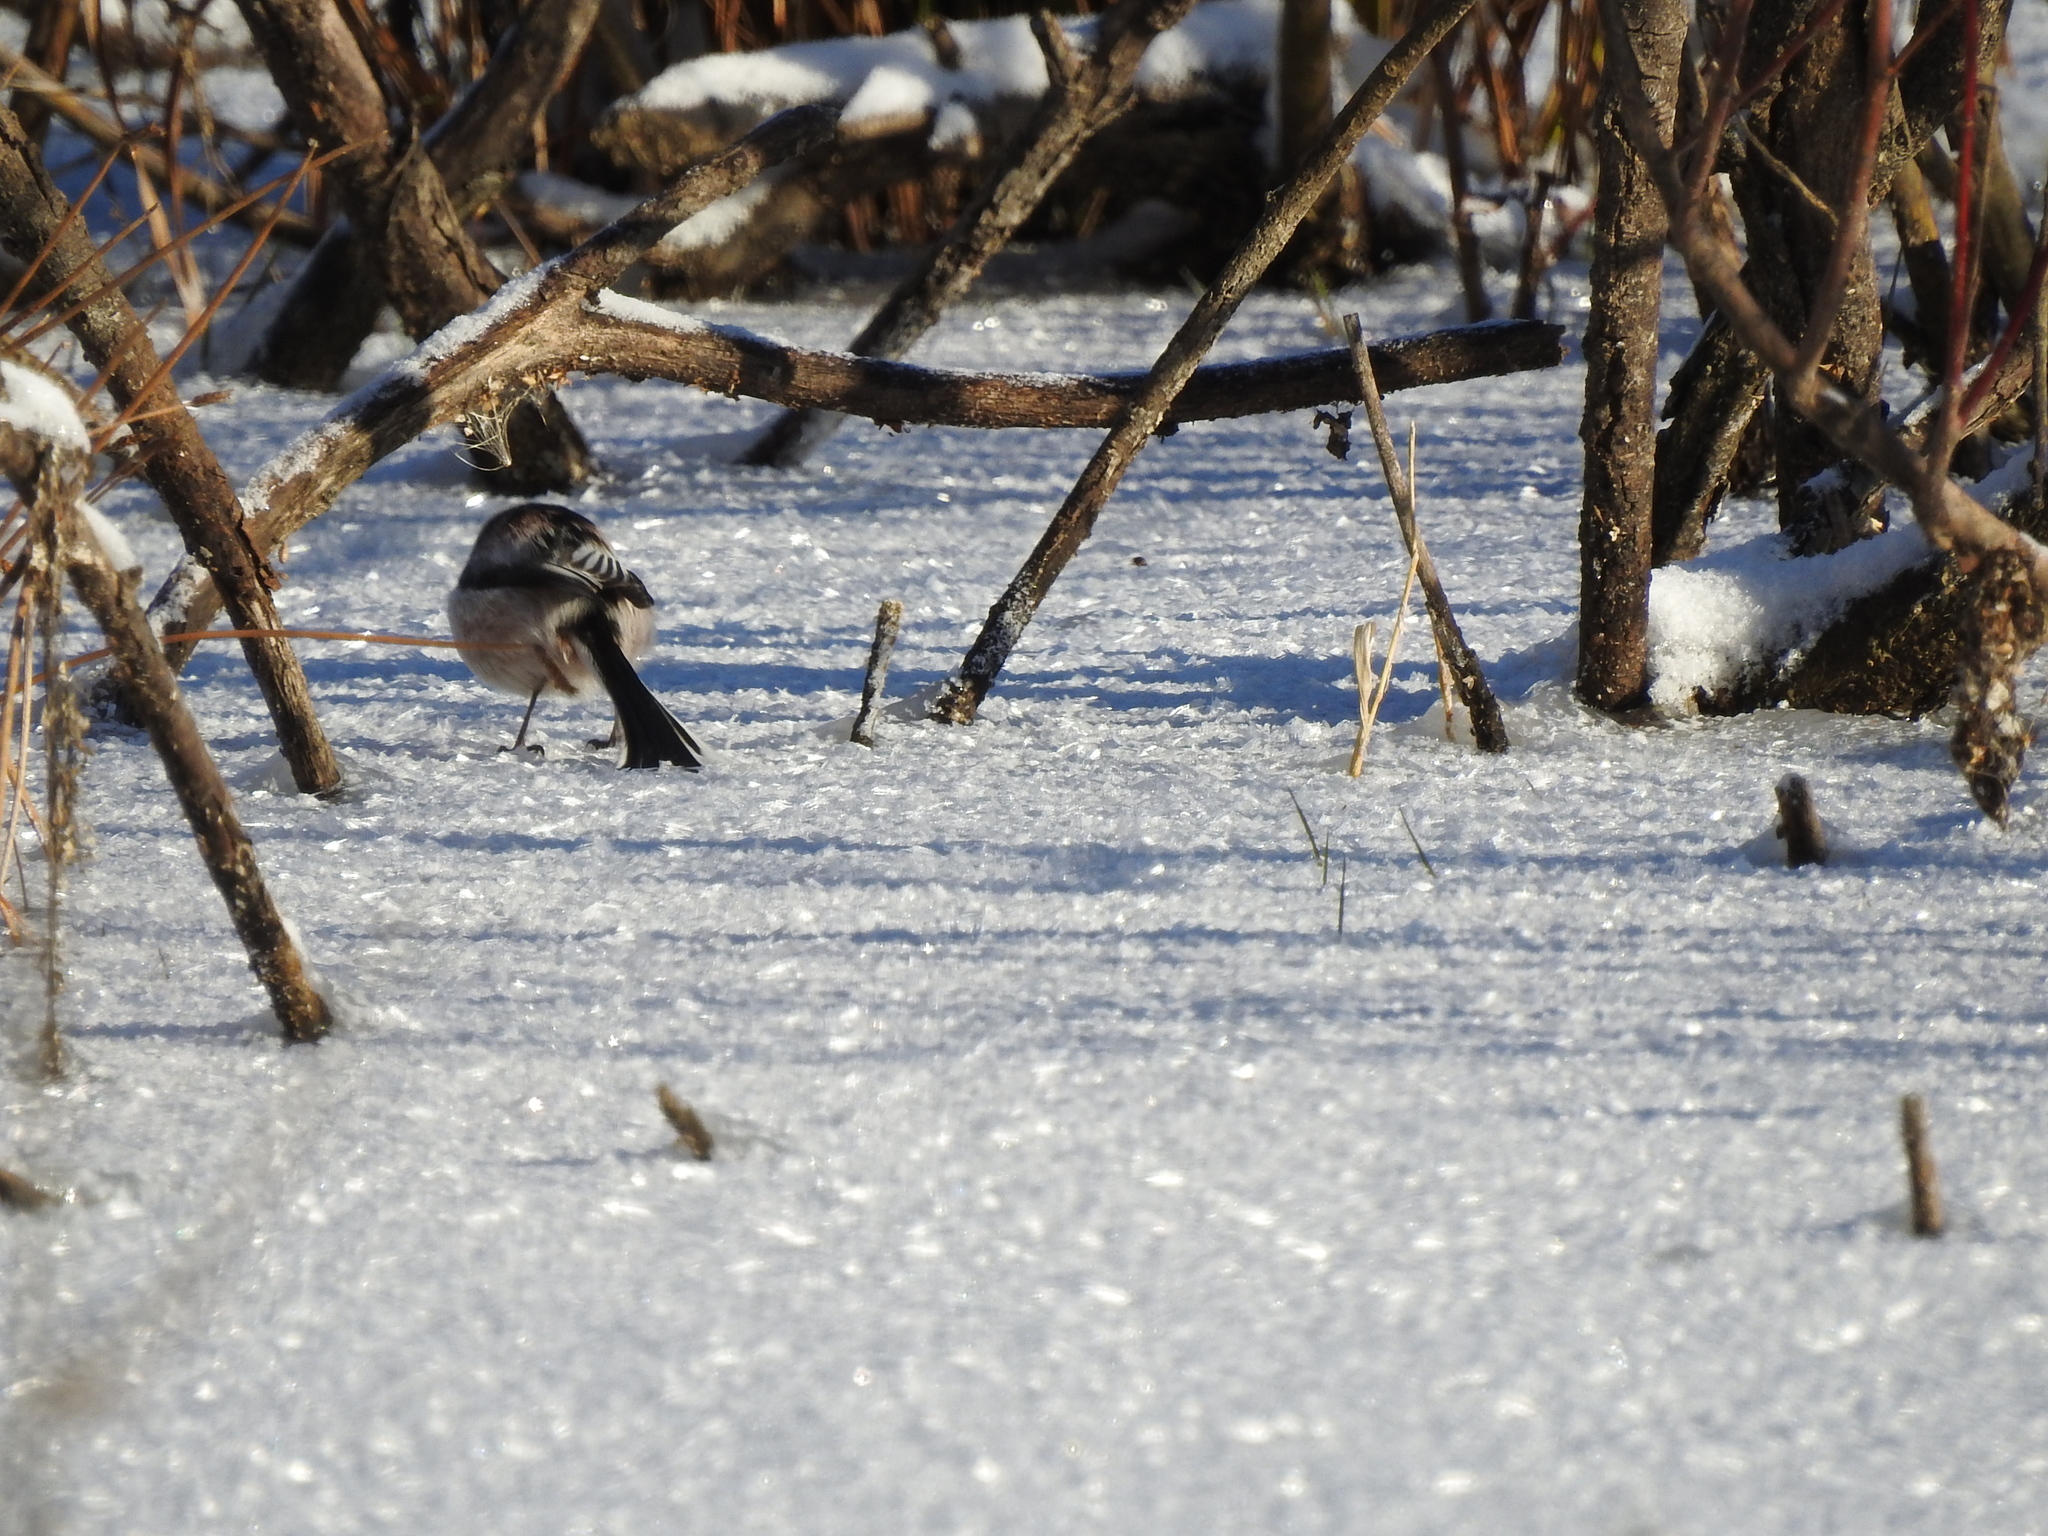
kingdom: Animalia
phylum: Chordata
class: Aves
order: Passeriformes
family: Aegithalidae
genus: Aegithalos
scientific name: Aegithalos caudatus
